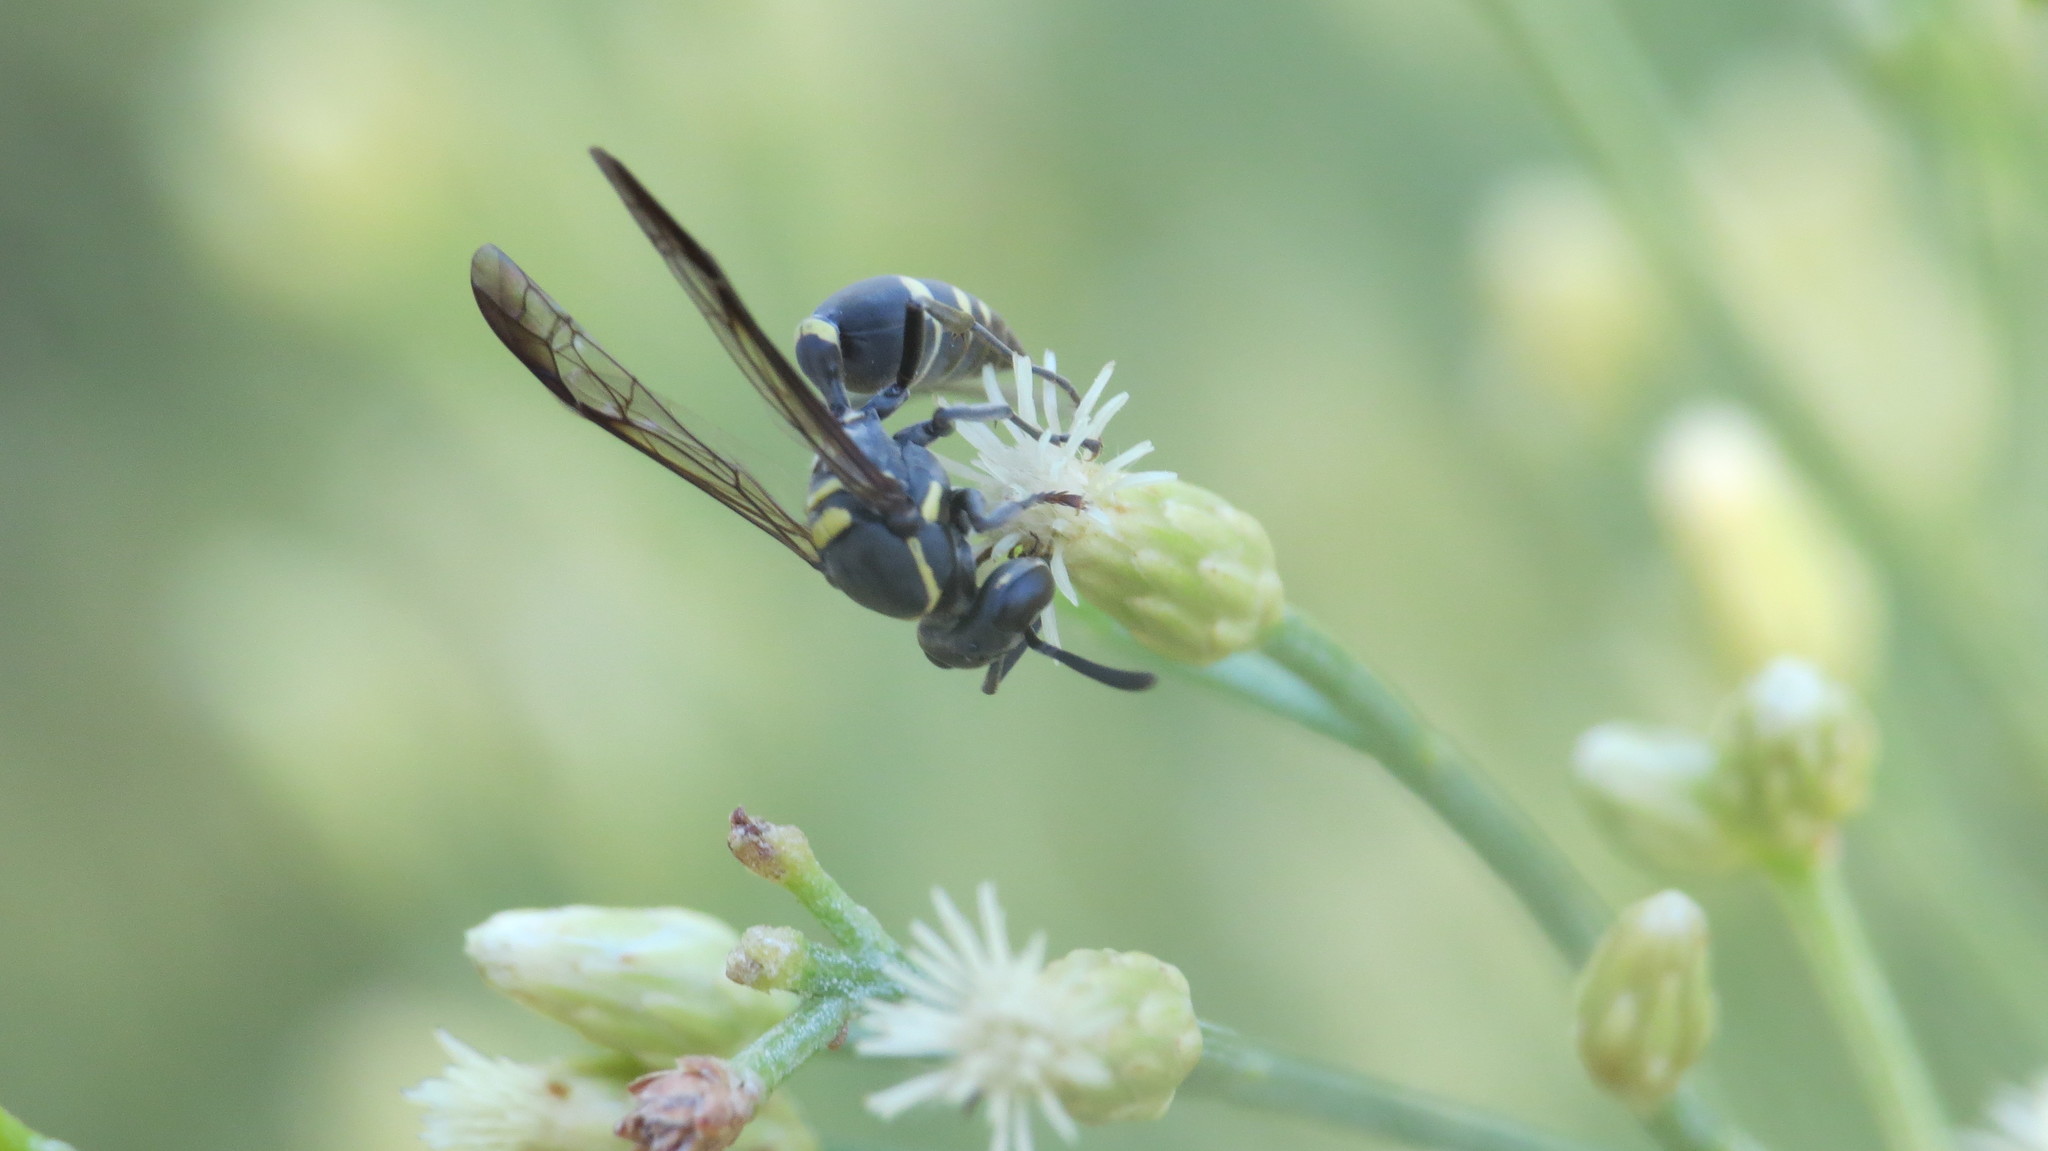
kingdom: Animalia
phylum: Arthropoda
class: Insecta
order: Hymenoptera
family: Eumenidae
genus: Polybia
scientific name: Polybia occidentalis
